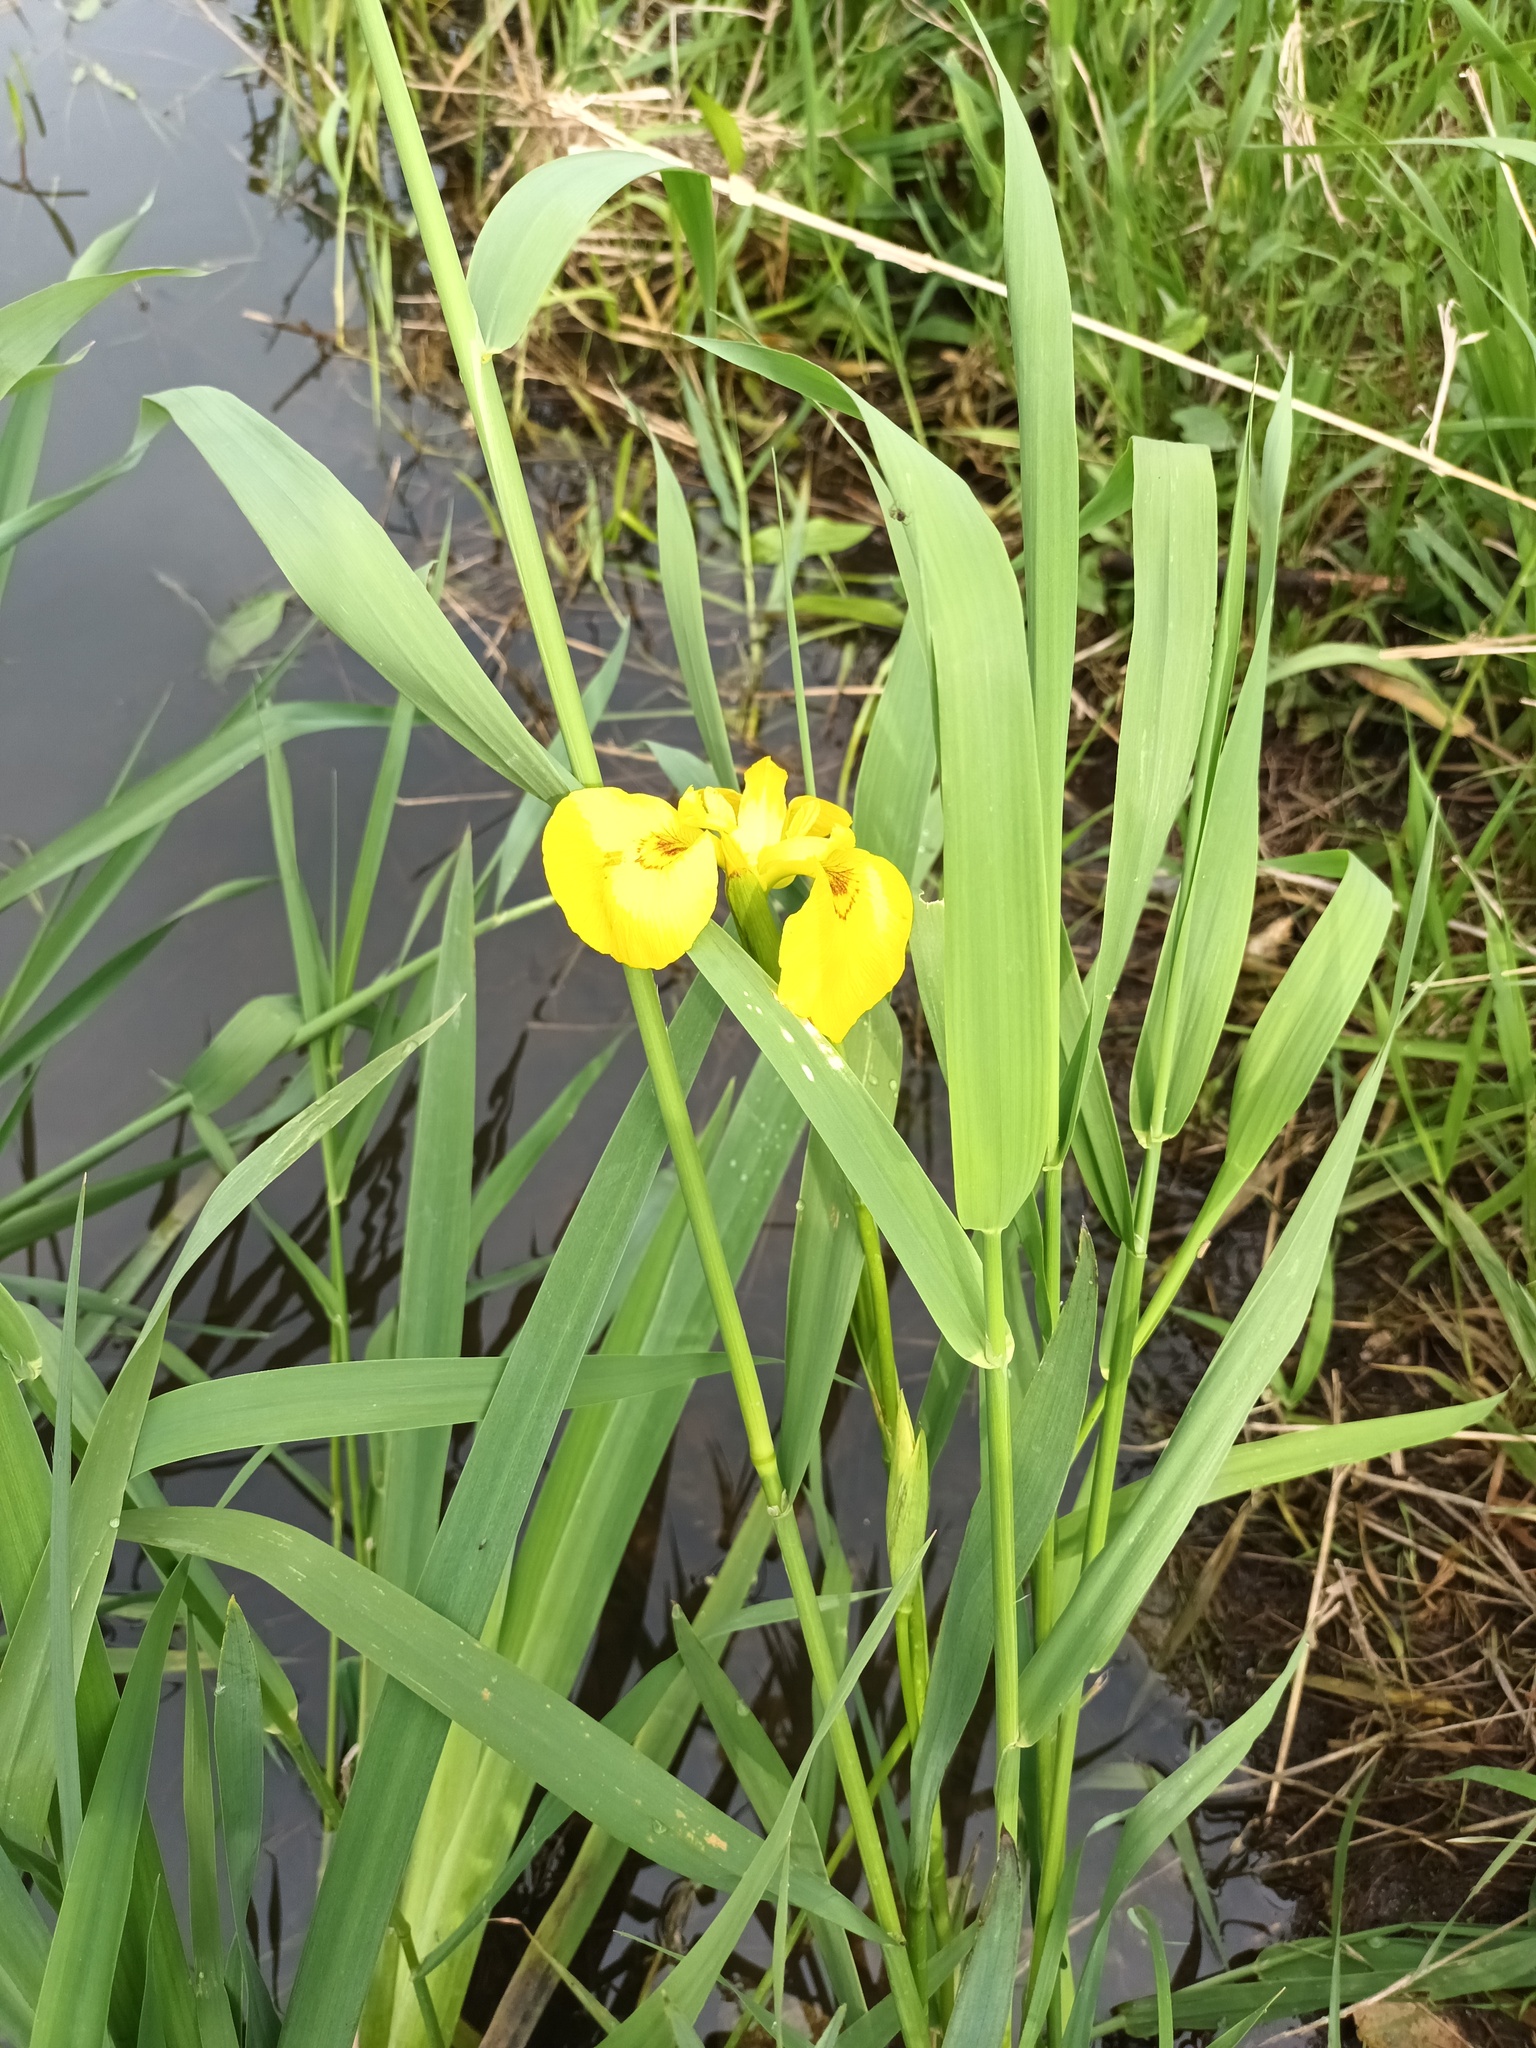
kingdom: Plantae
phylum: Tracheophyta
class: Liliopsida
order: Asparagales
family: Iridaceae
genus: Iris
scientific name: Iris pseudacorus
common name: Yellow flag
